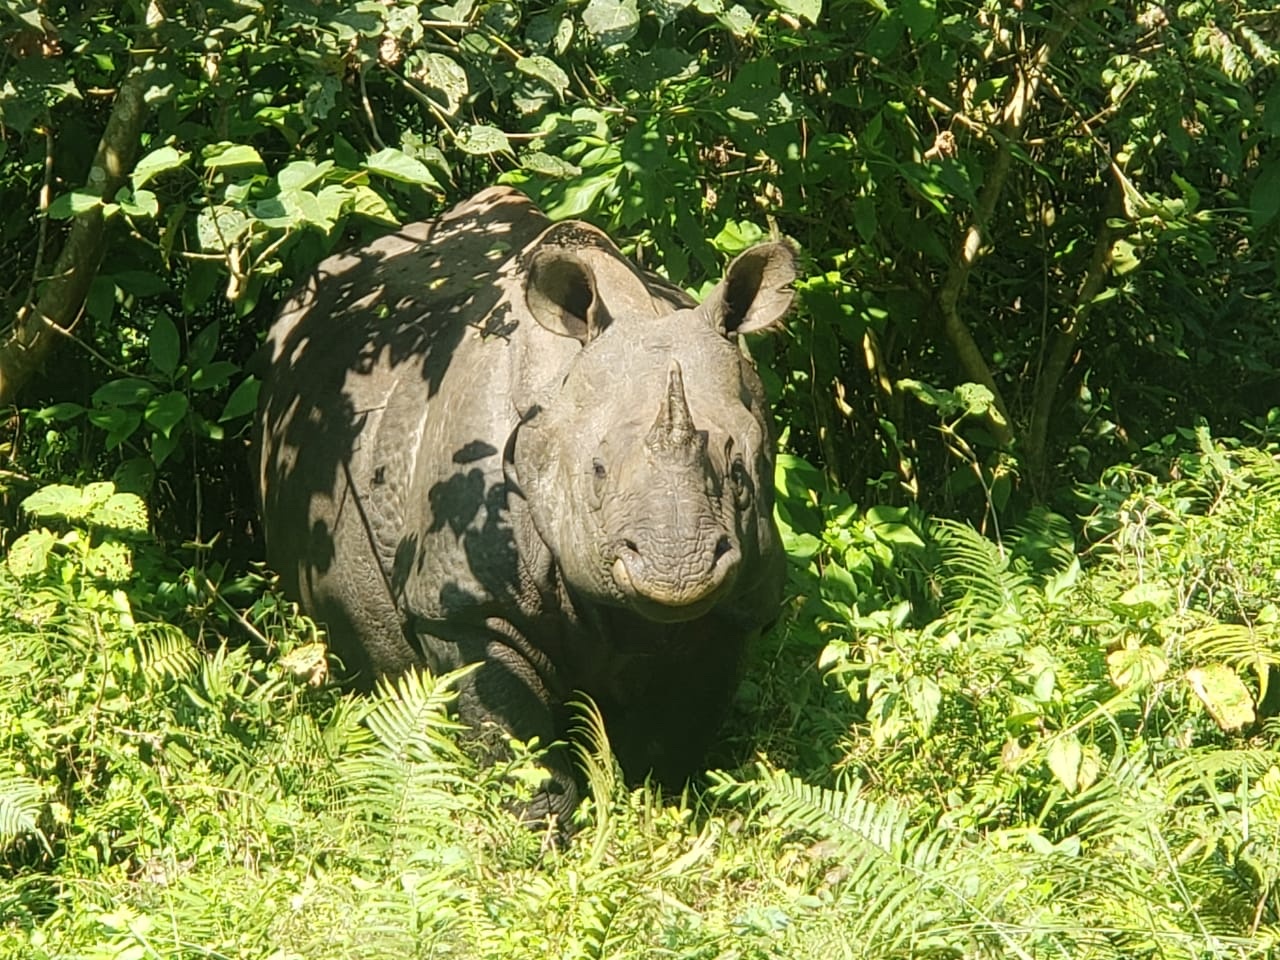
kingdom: Animalia
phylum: Chordata
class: Mammalia
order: Perissodactyla
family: Rhinocerotidae
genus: Rhinoceros
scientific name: Rhinoceros unicornis
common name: Indian rhinoceros
